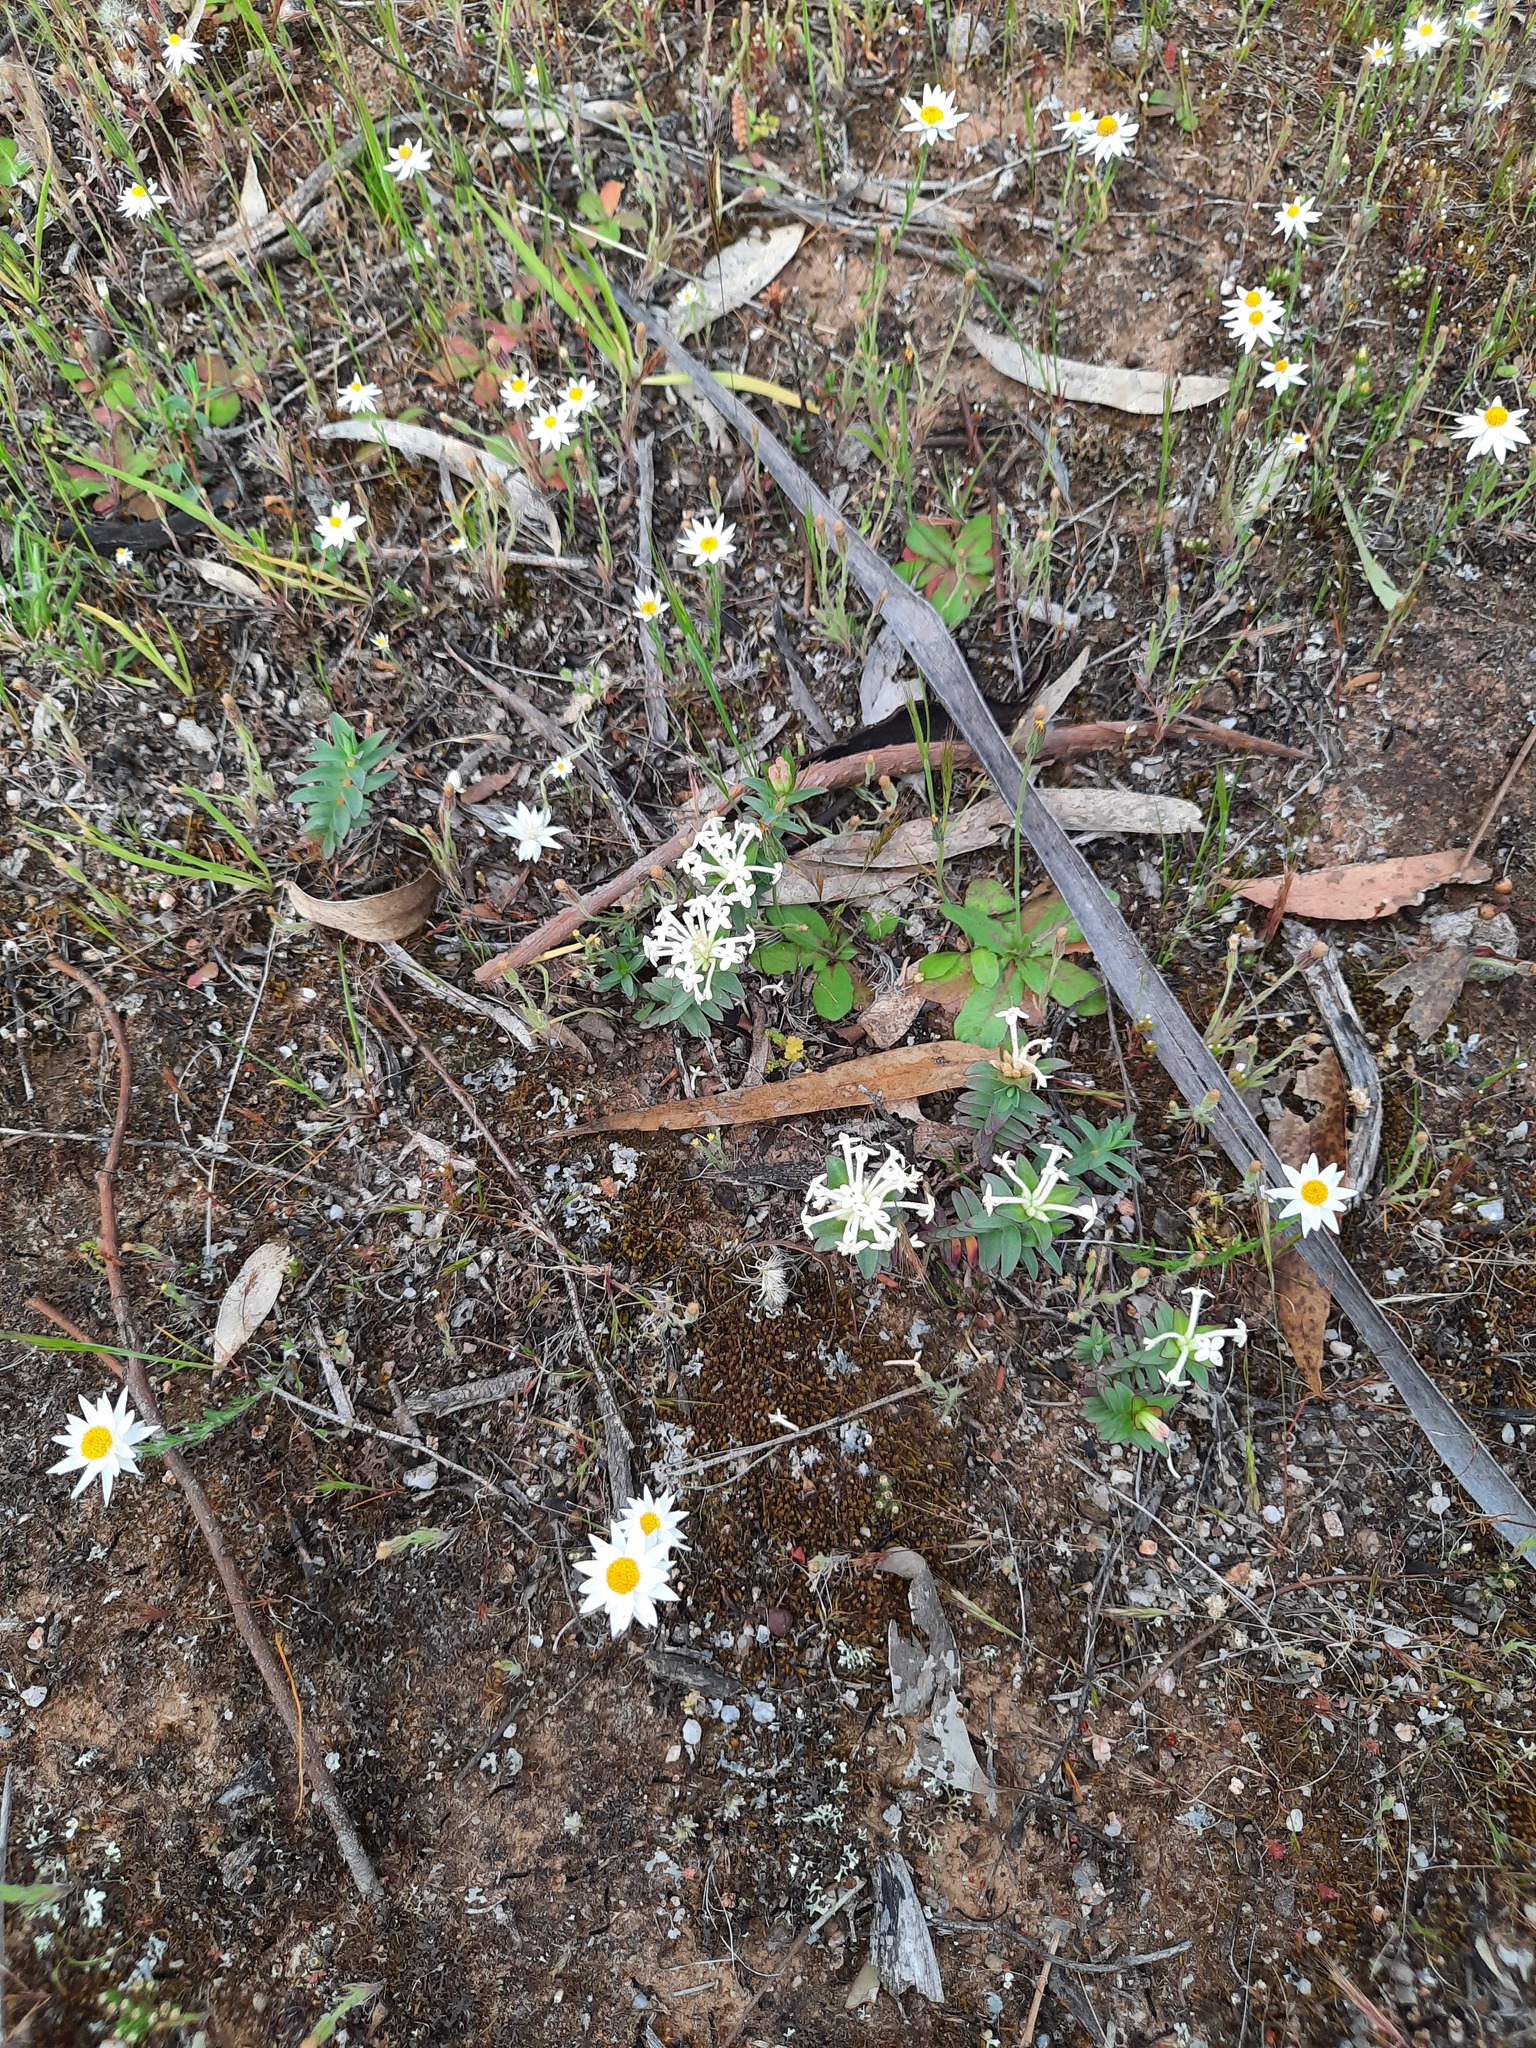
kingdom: Plantae
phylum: Tracheophyta
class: Magnoliopsida
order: Malvales
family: Thymelaeaceae
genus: Pimelea
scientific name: Pimelea humilis
